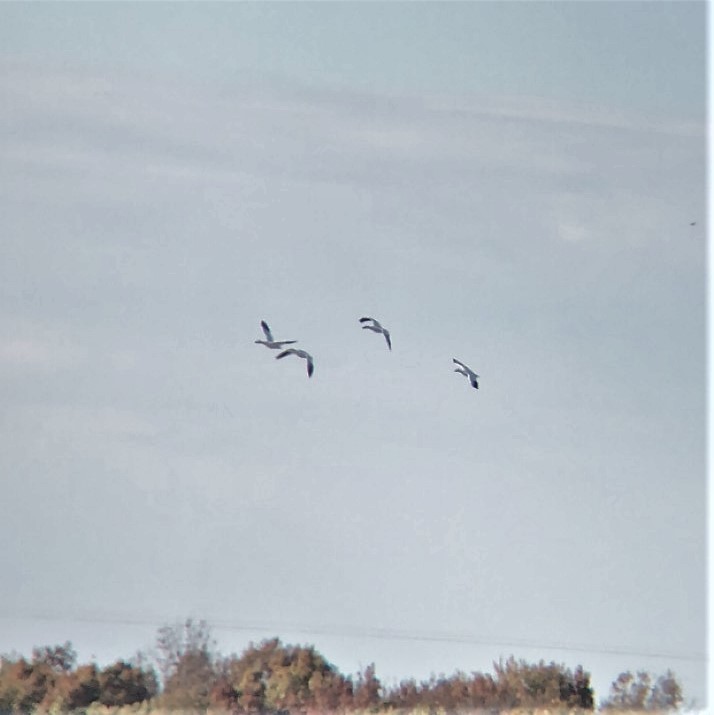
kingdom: Animalia
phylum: Chordata
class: Aves
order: Anseriformes
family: Anatidae
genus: Anser
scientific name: Anser caerulescens
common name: Snow goose
